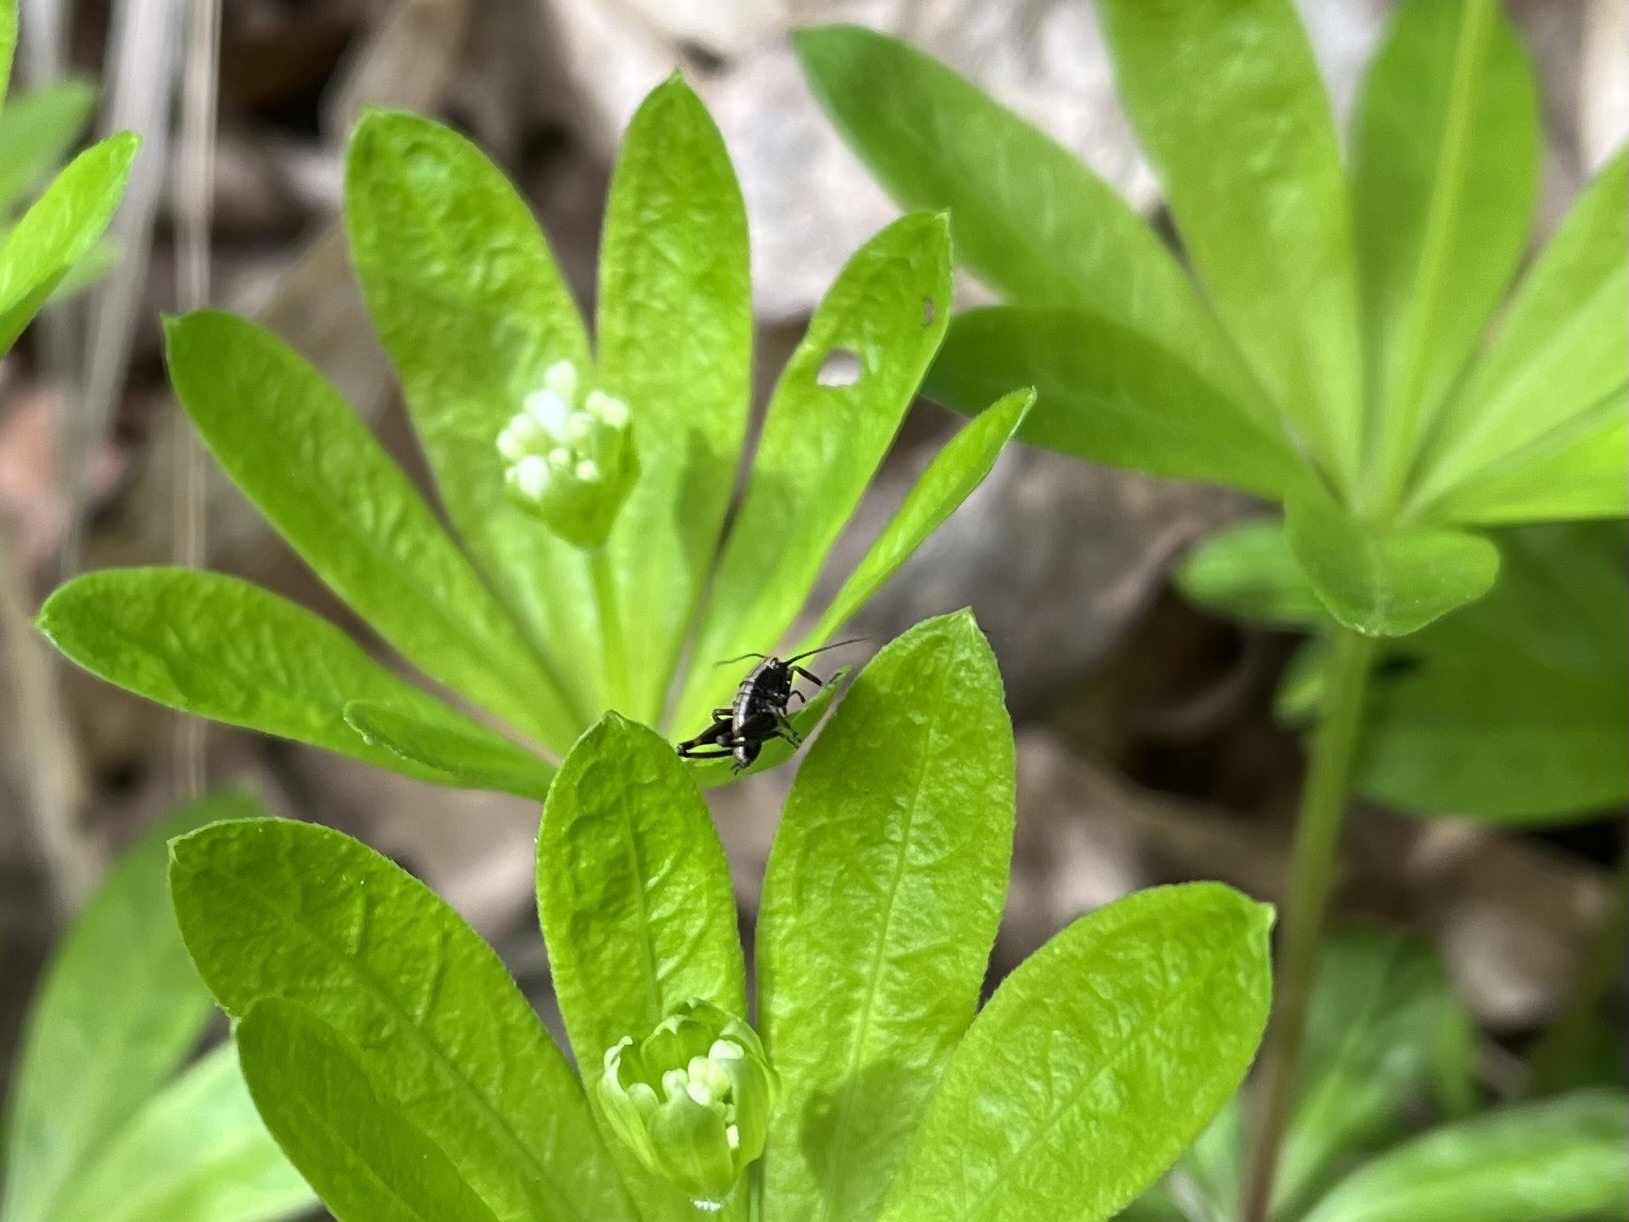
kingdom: Animalia
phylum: Arthropoda
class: Insecta
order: Orthoptera
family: Tettigoniidae
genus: Pholidoptera
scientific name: Pholidoptera griseoaptera
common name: Dark bush-cricket
